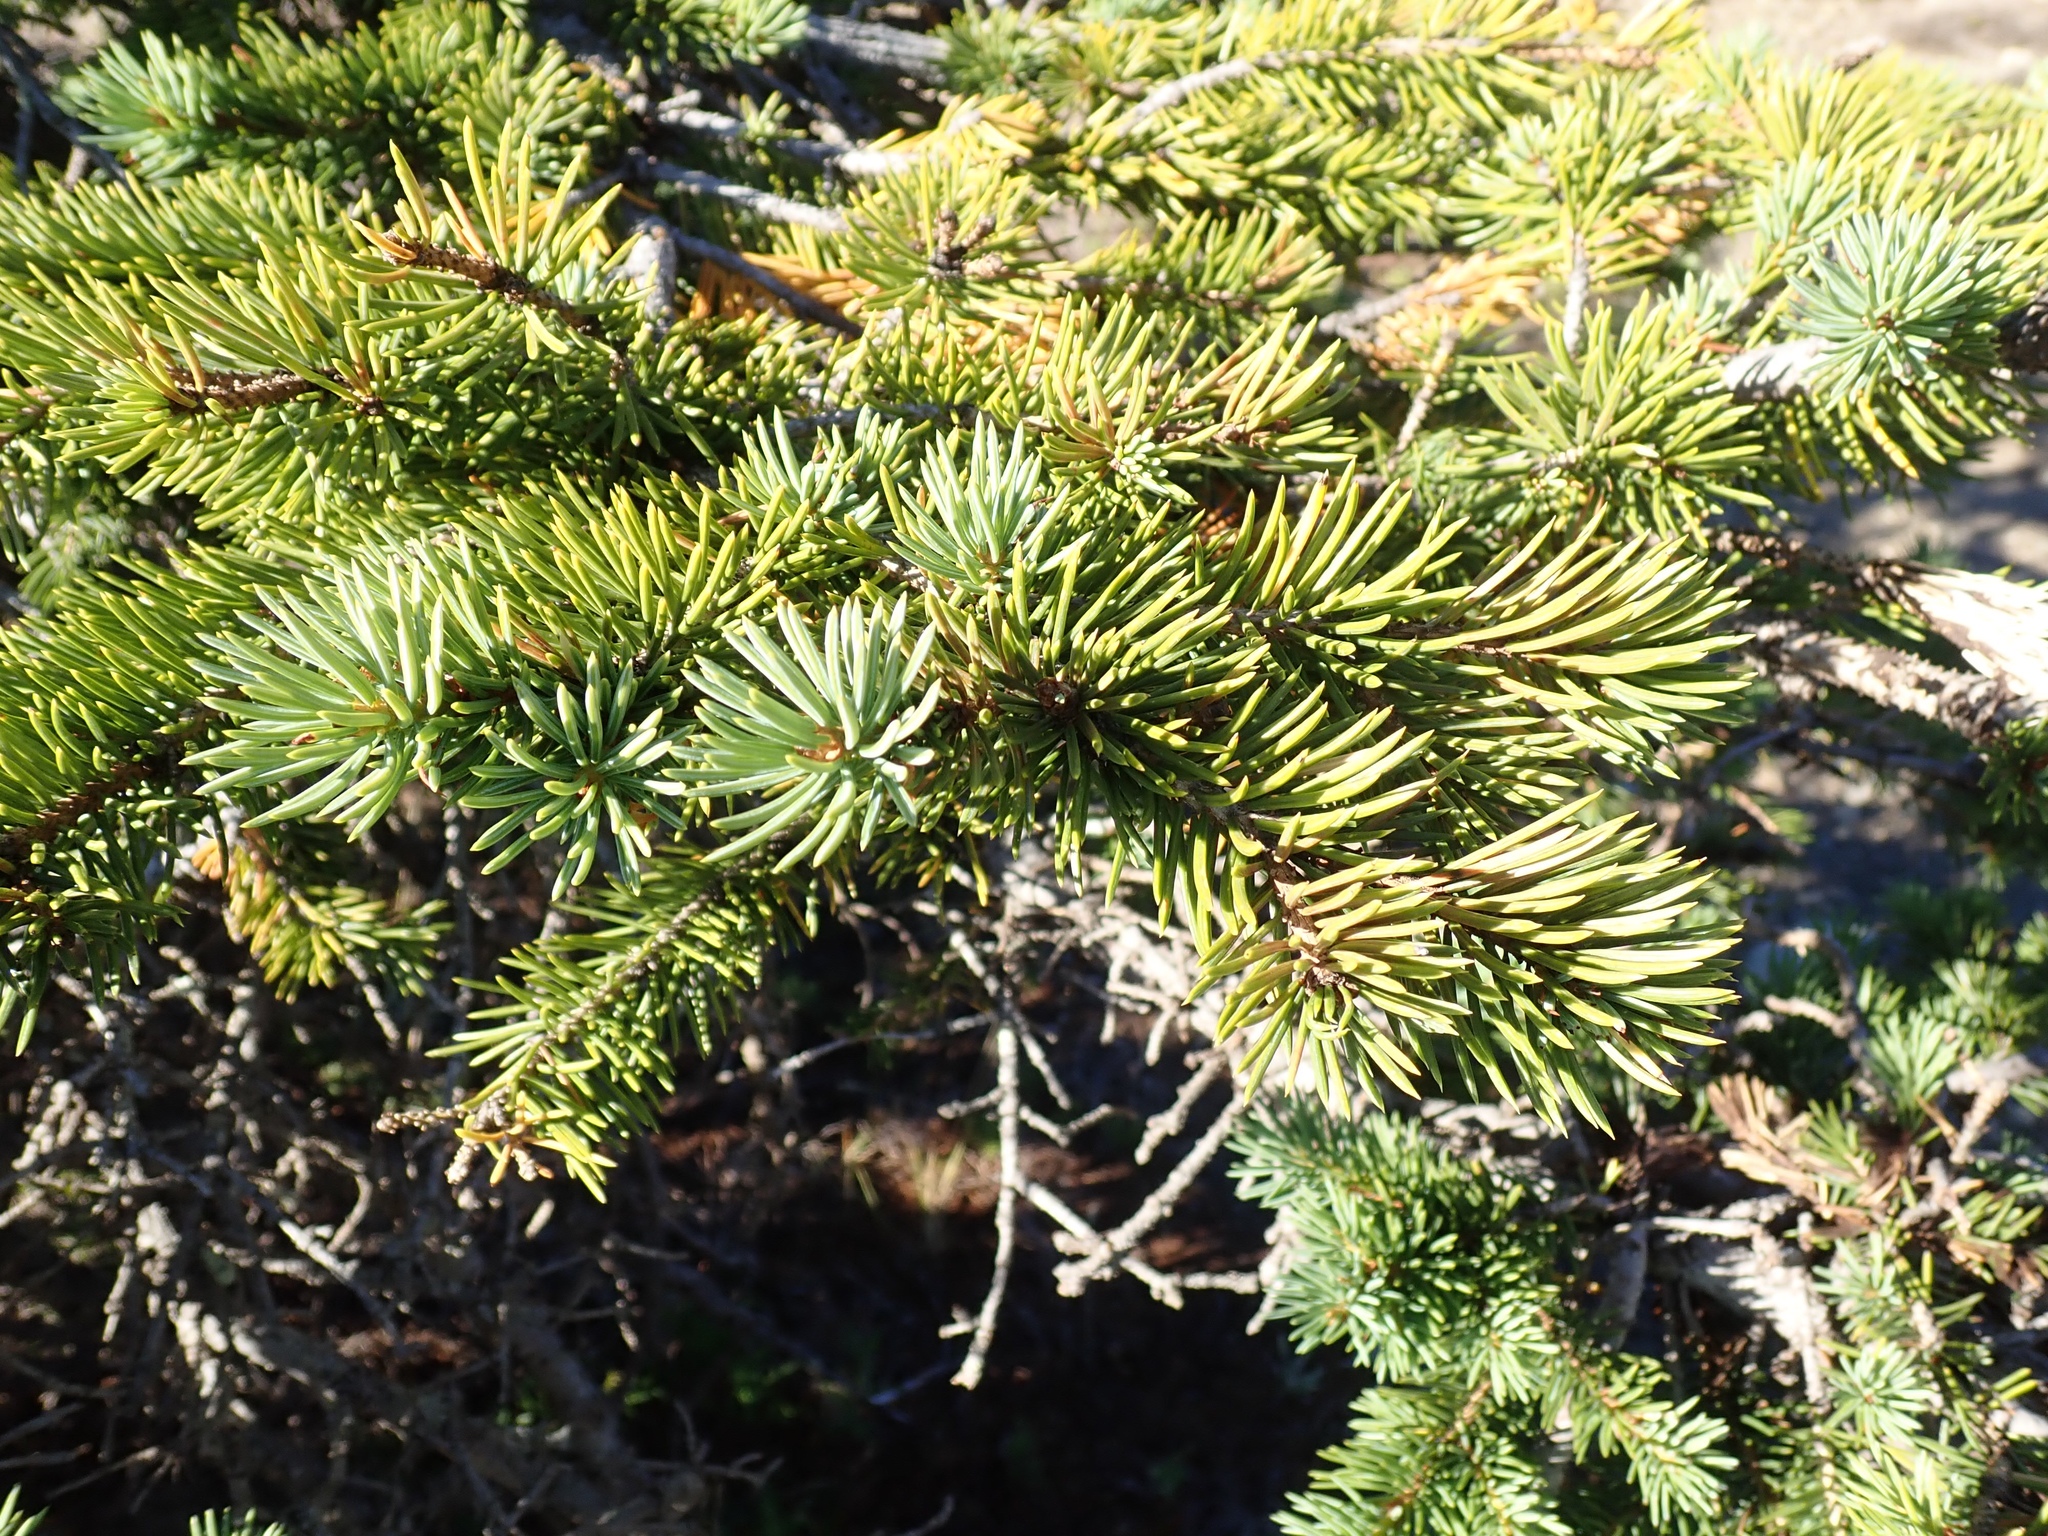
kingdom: Plantae
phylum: Tracheophyta
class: Pinopsida
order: Pinales
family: Pinaceae
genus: Picea
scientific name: Picea engelmannii
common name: Engelmann spruce
